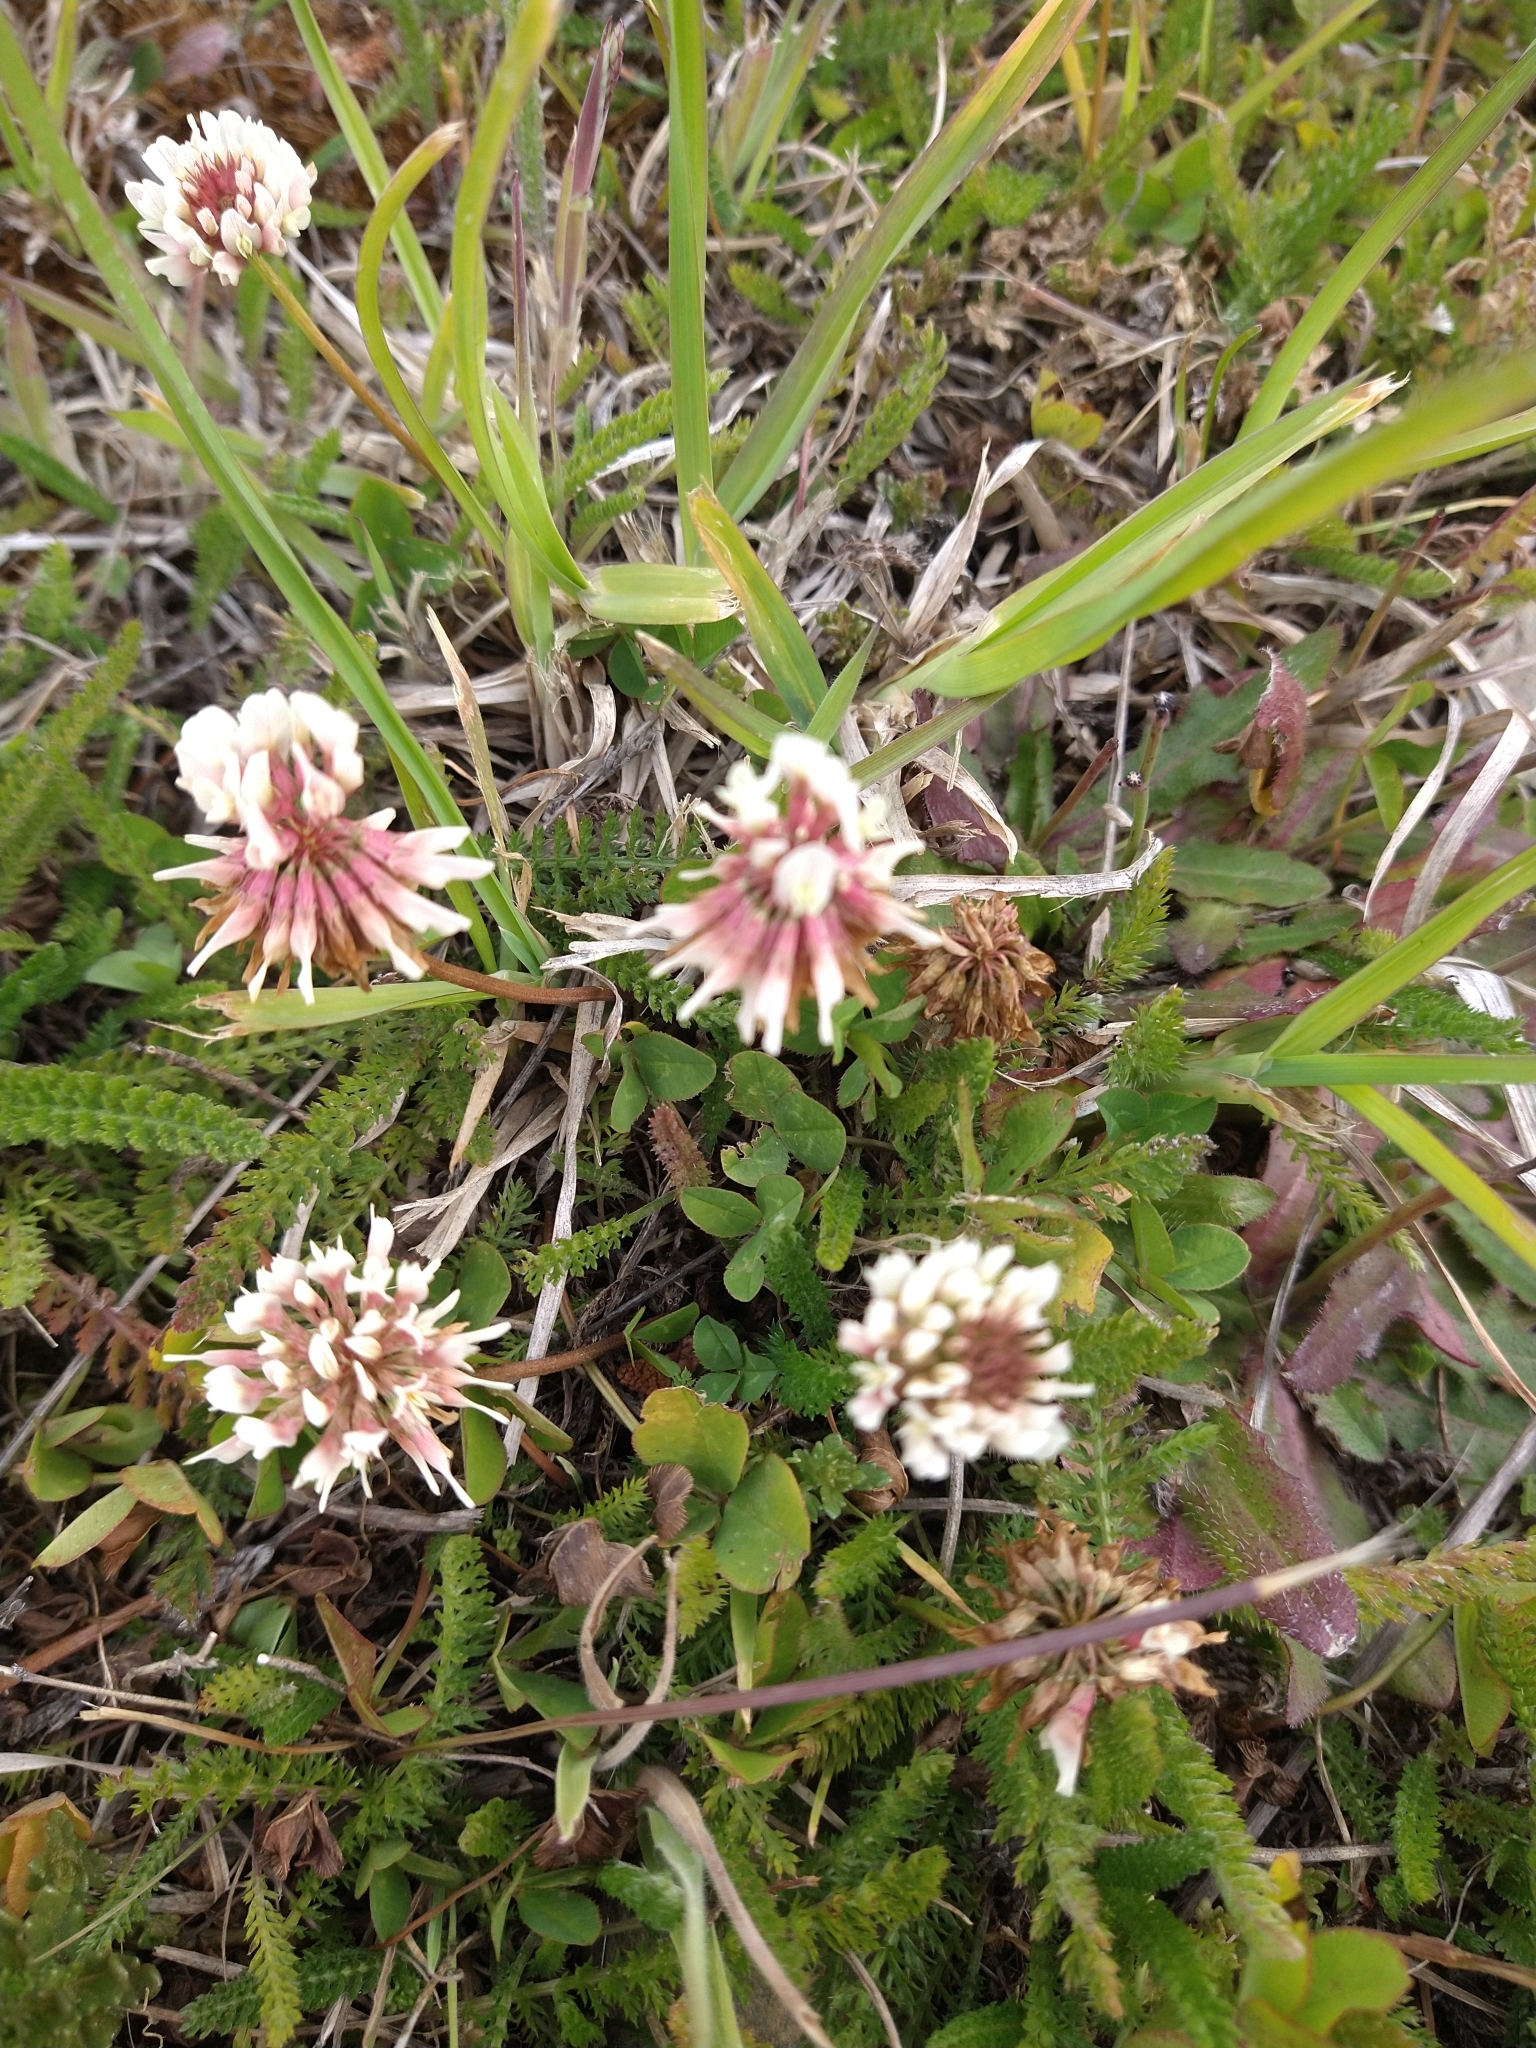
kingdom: Plantae
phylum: Tracheophyta
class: Magnoliopsida
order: Fabales
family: Fabaceae
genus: Trifolium
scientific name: Trifolium repens
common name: White clover
